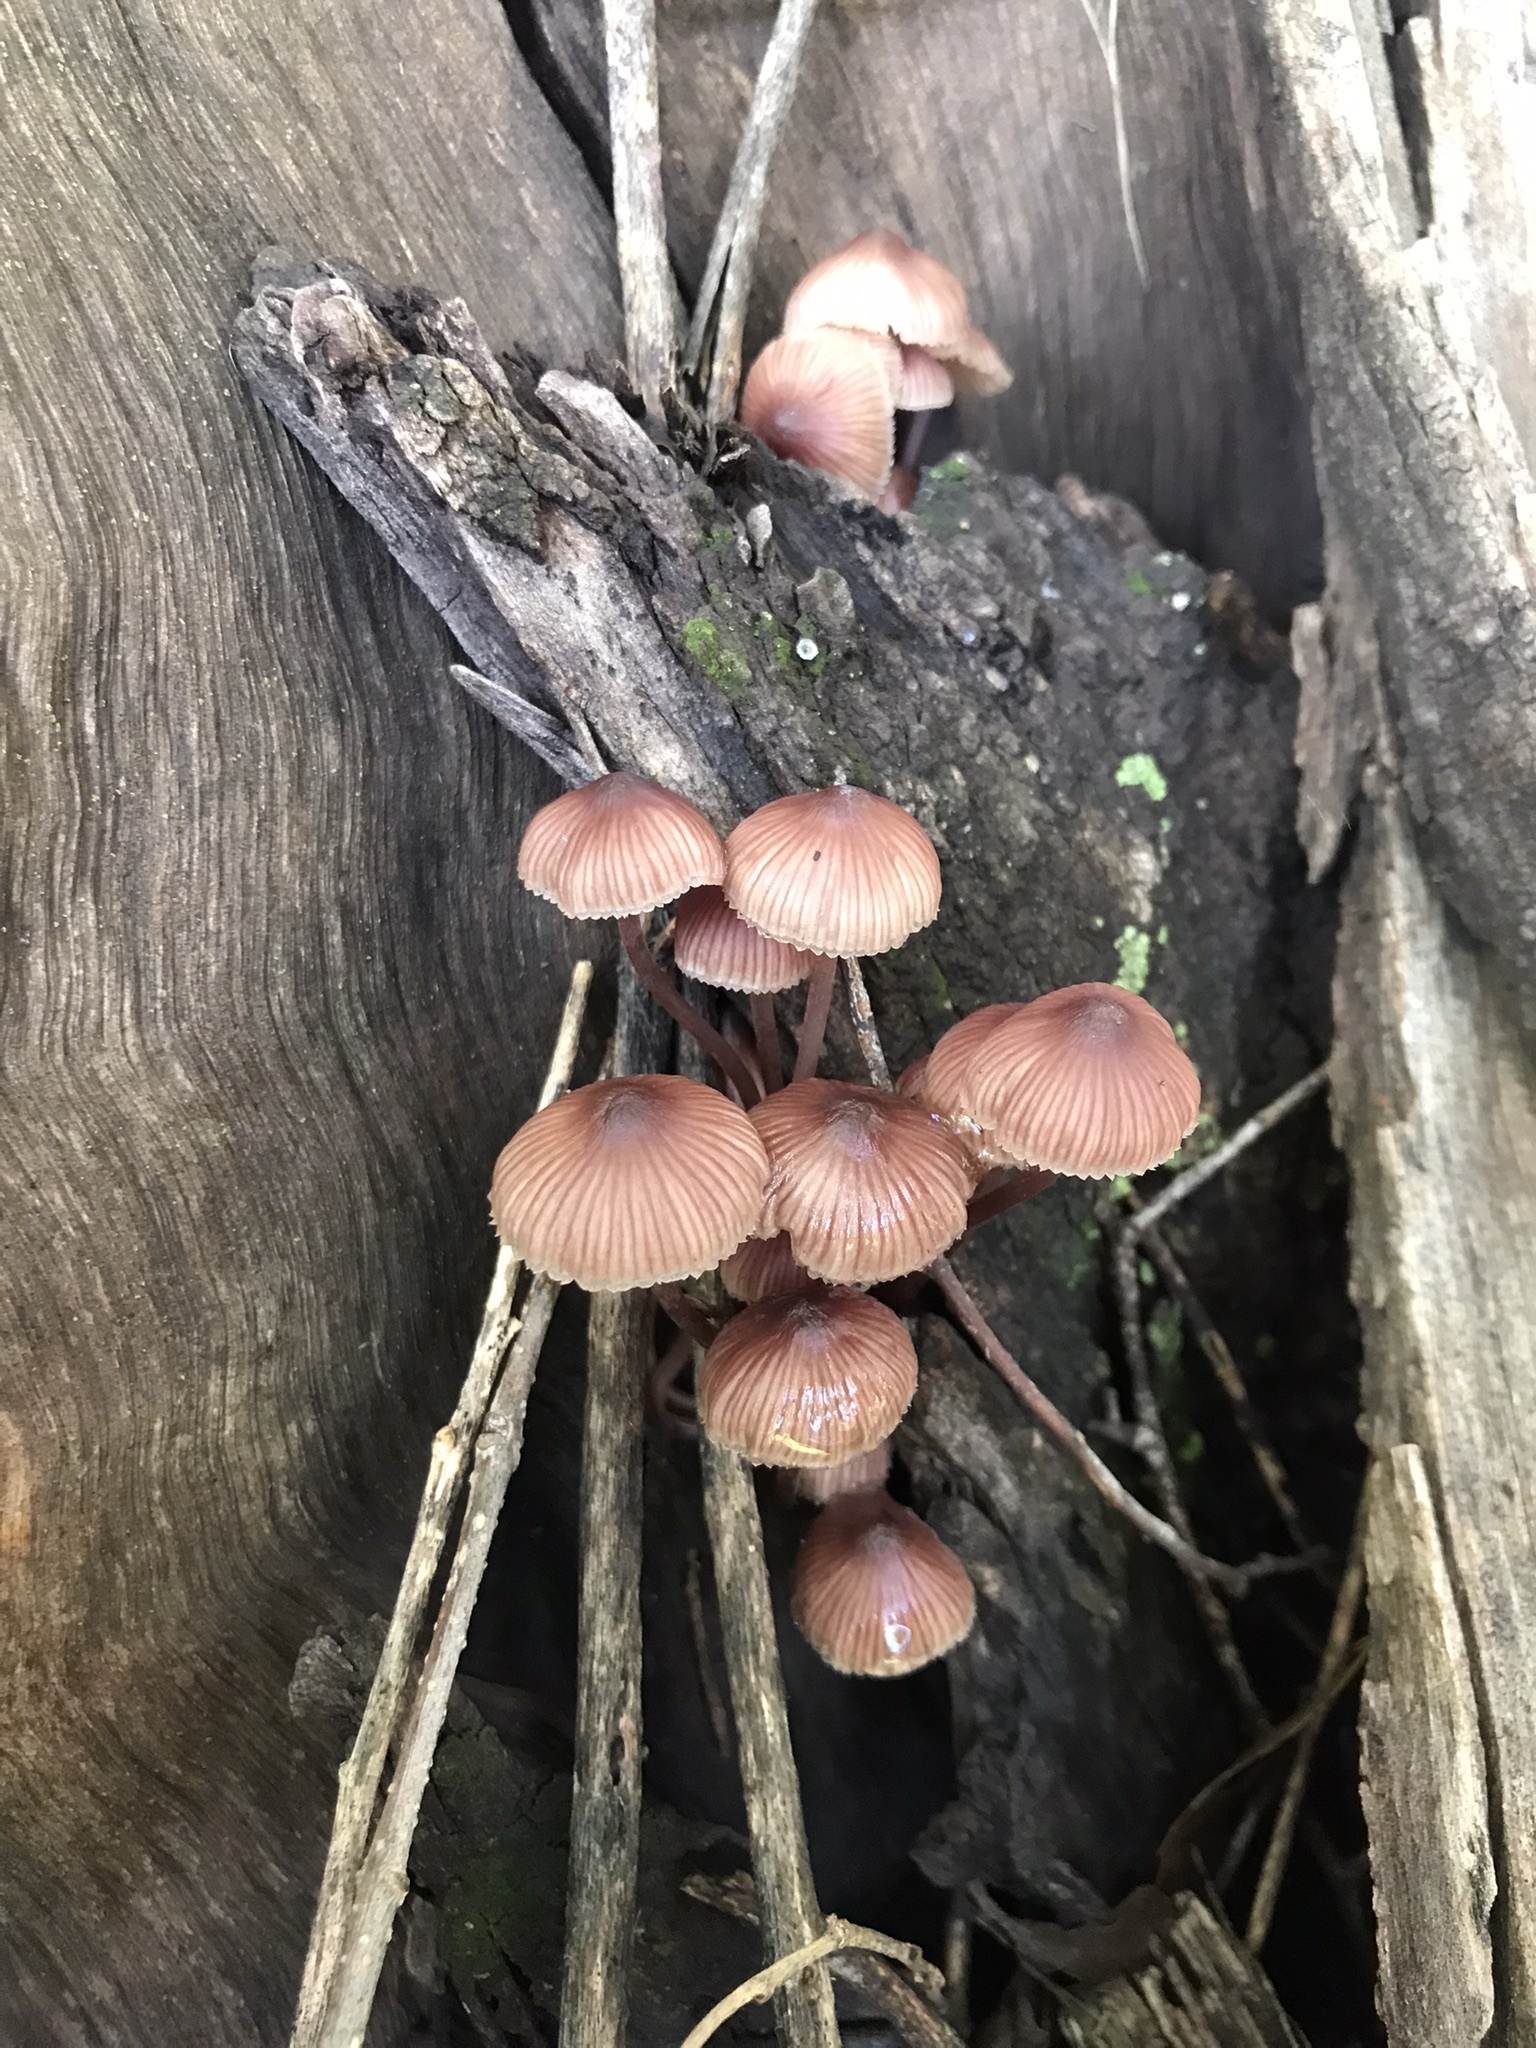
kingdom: Fungi
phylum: Basidiomycota
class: Agaricomycetes
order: Agaricales
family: Mycenaceae
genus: Mycena
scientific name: Mycena haematopus
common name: Burgundydrop bonnet
